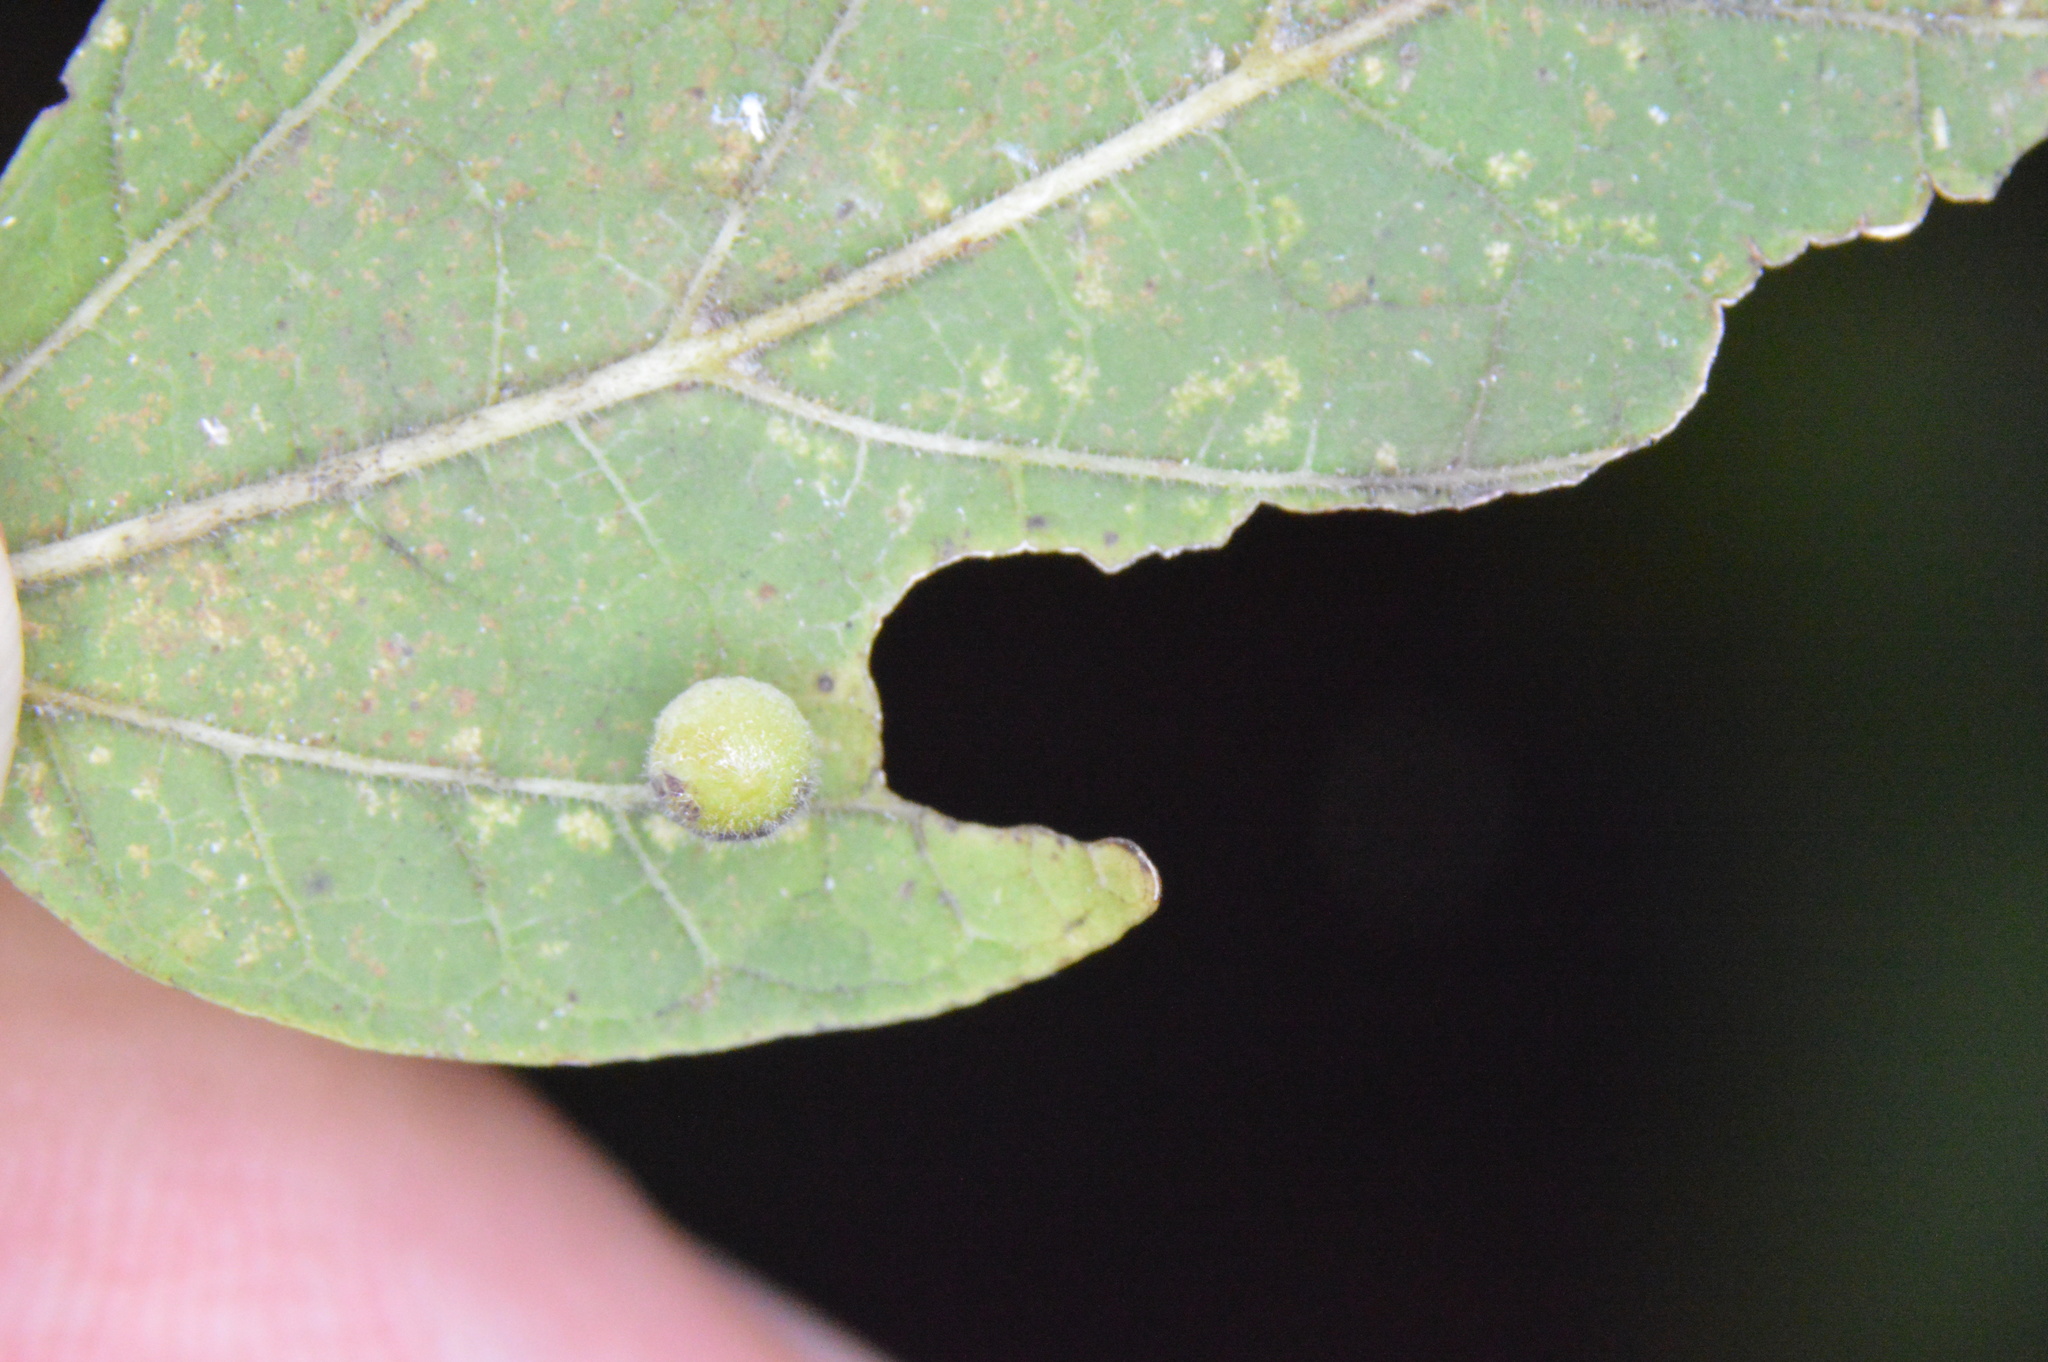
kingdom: Animalia
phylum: Arthropoda
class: Insecta
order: Diptera
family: Cecidomyiidae
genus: Celticecis
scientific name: Celticecis globosa
